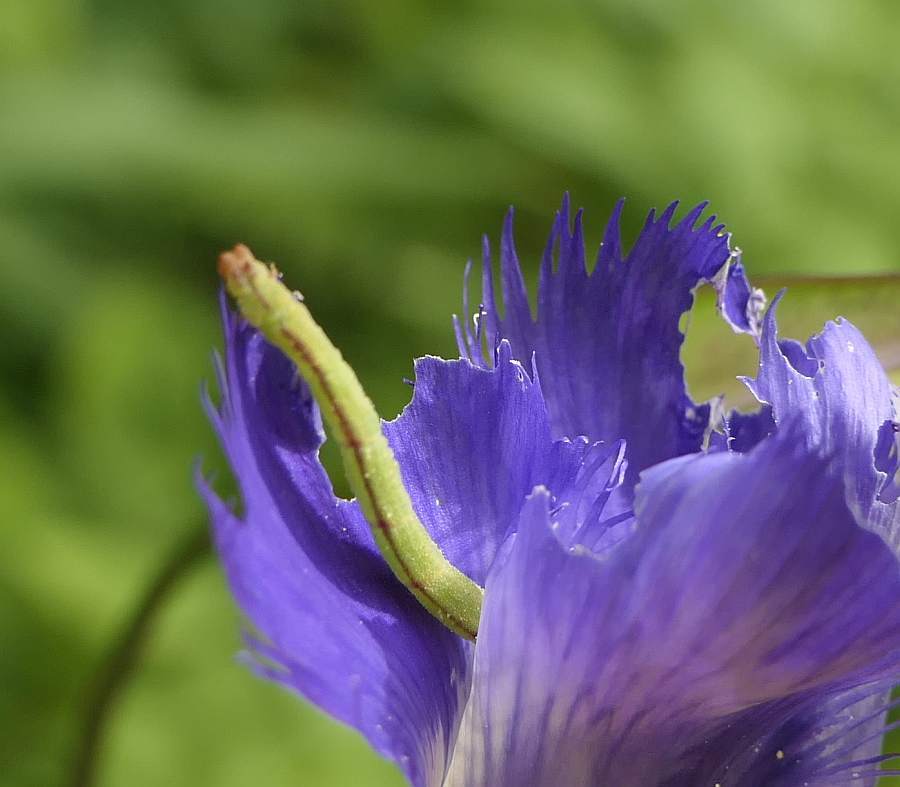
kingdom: Animalia
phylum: Arthropoda
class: Insecta
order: Lepidoptera
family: Geometridae
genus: Chlorochlamys
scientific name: Chlorochlamys chloroleucaria
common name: Blackberry looper
